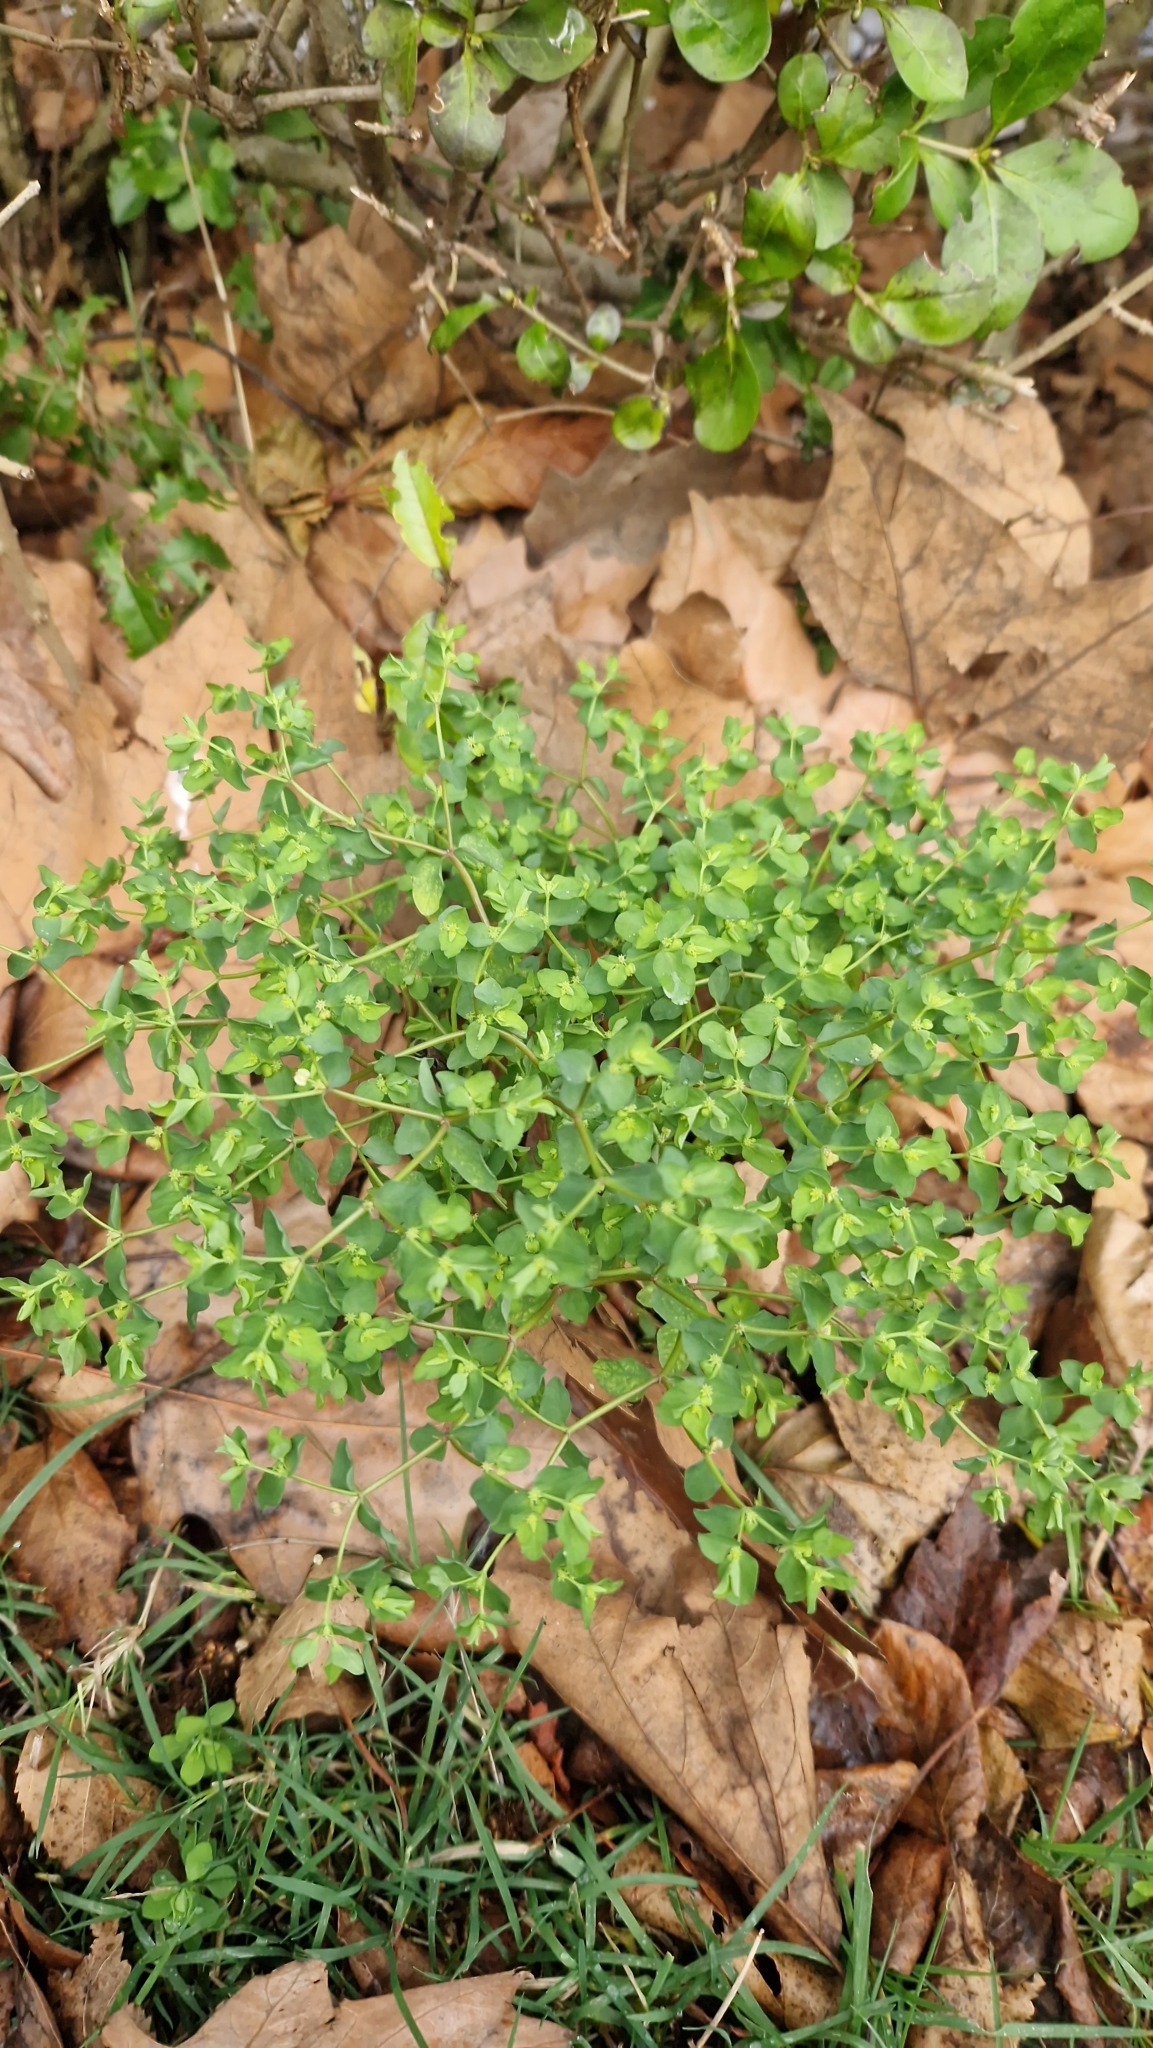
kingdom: Plantae
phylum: Tracheophyta
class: Magnoliopsida
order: Malpighiales
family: Euphorbiaceae
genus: Euphorbia
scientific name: Euphorbia peplus
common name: Petty spurge
